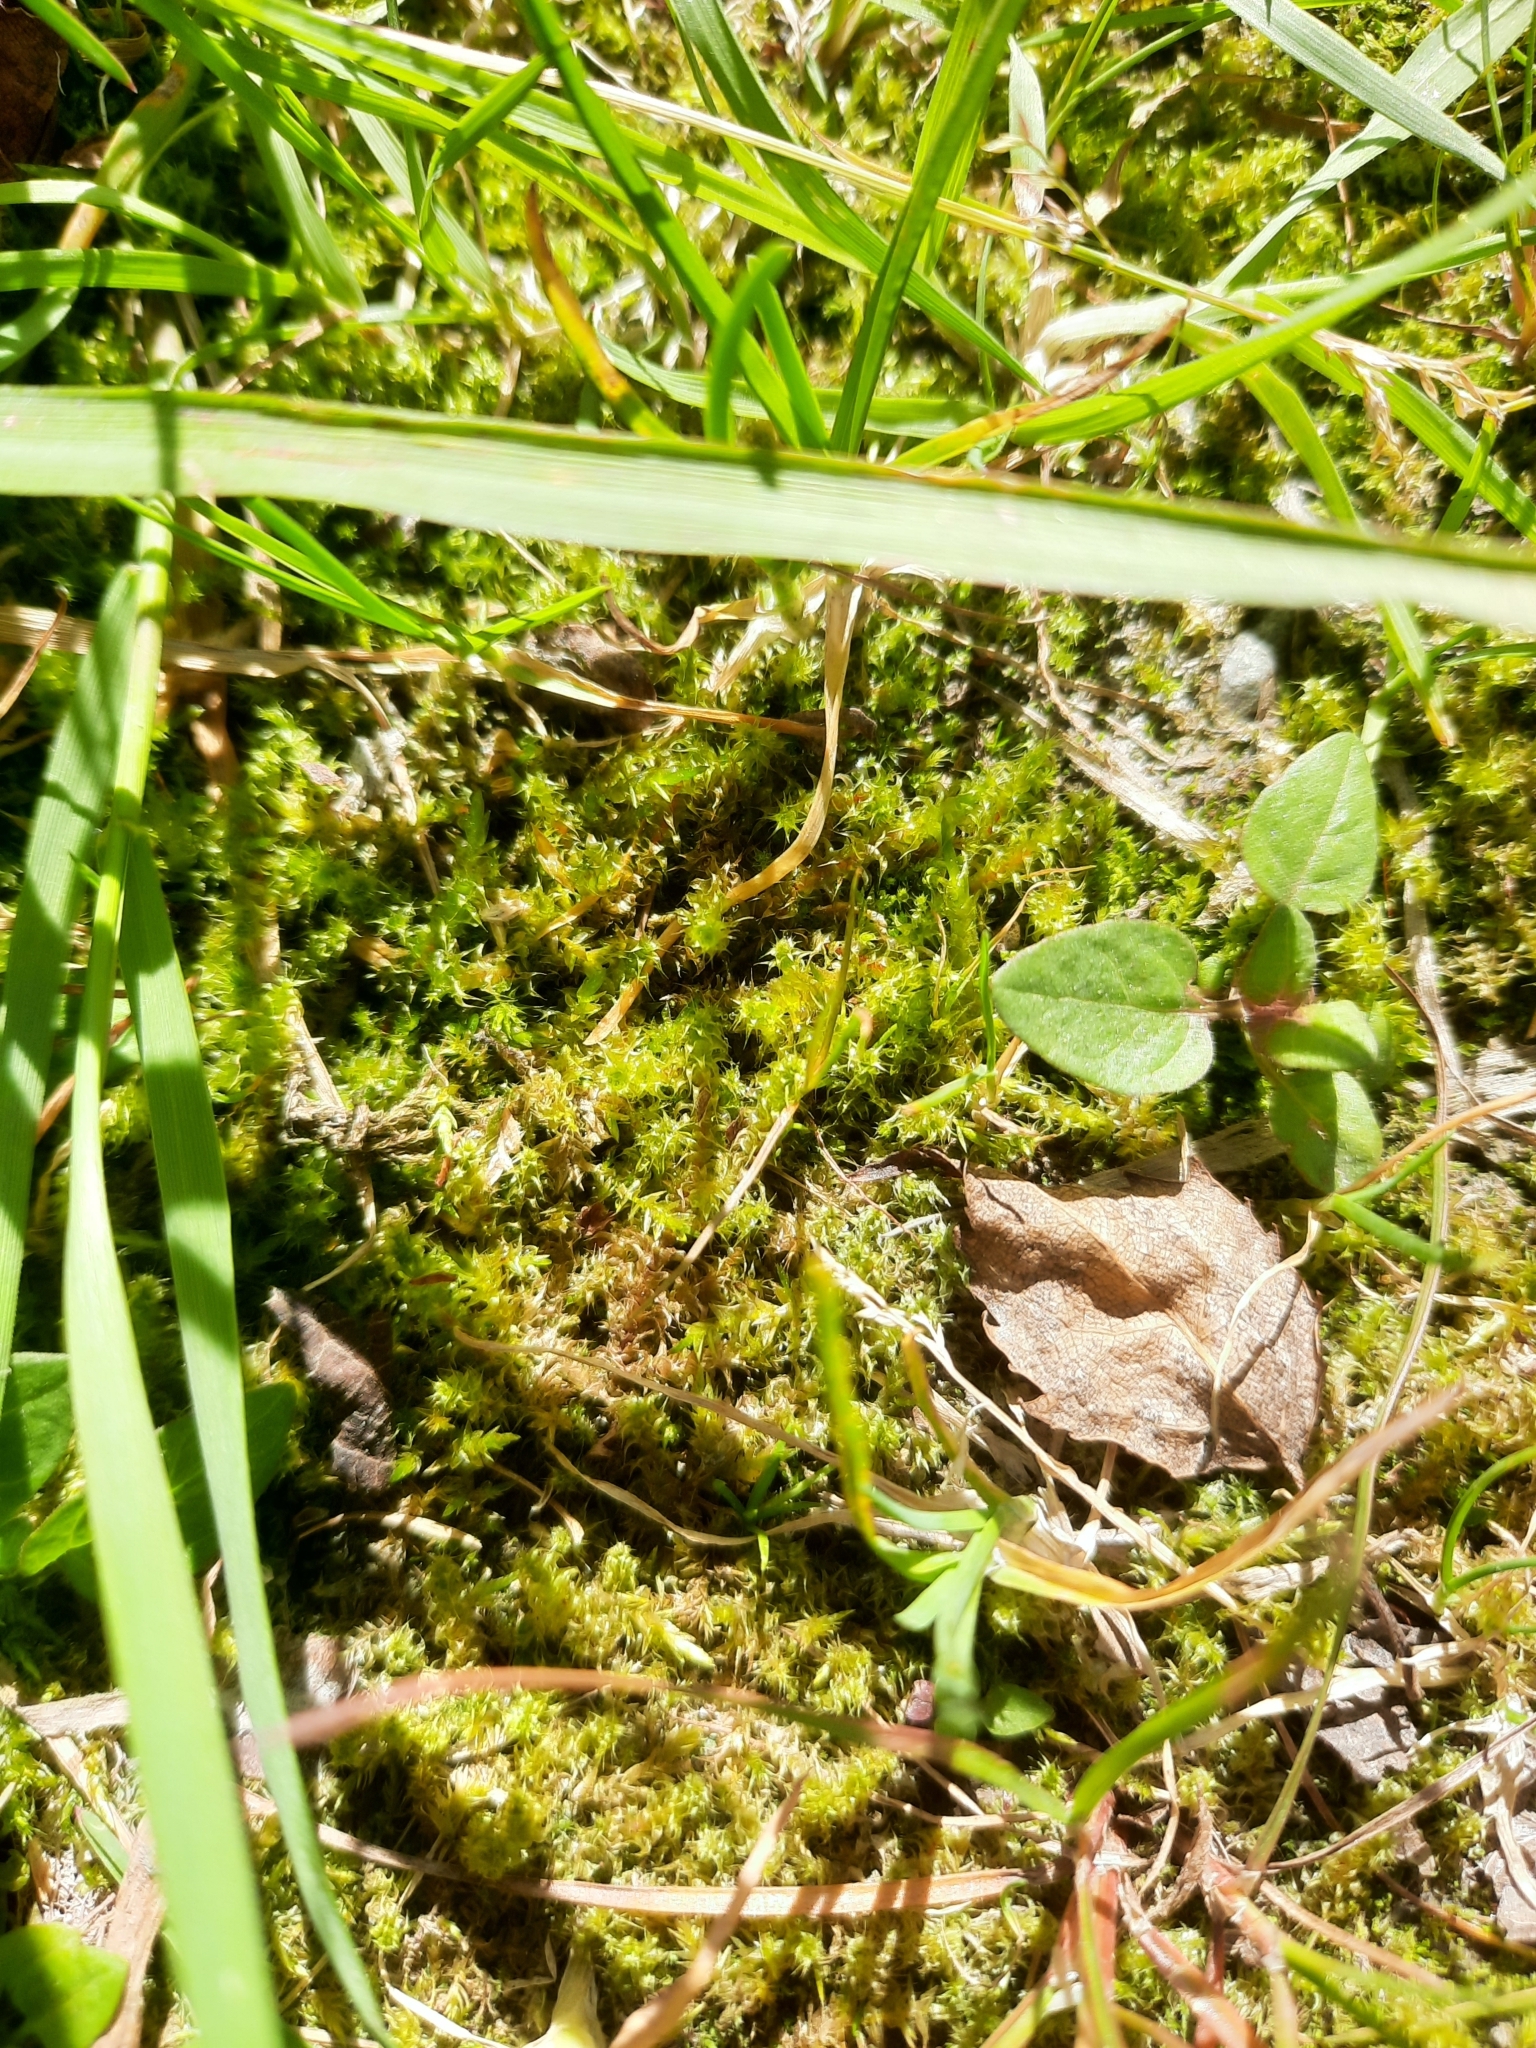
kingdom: Plantae
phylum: Bryophyta
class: Bryopsida
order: Hypnales
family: Hylocomiaceae
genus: Rhytidiadelphus
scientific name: Rhytidiadelphus squarrosus
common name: Springy turf-moss
